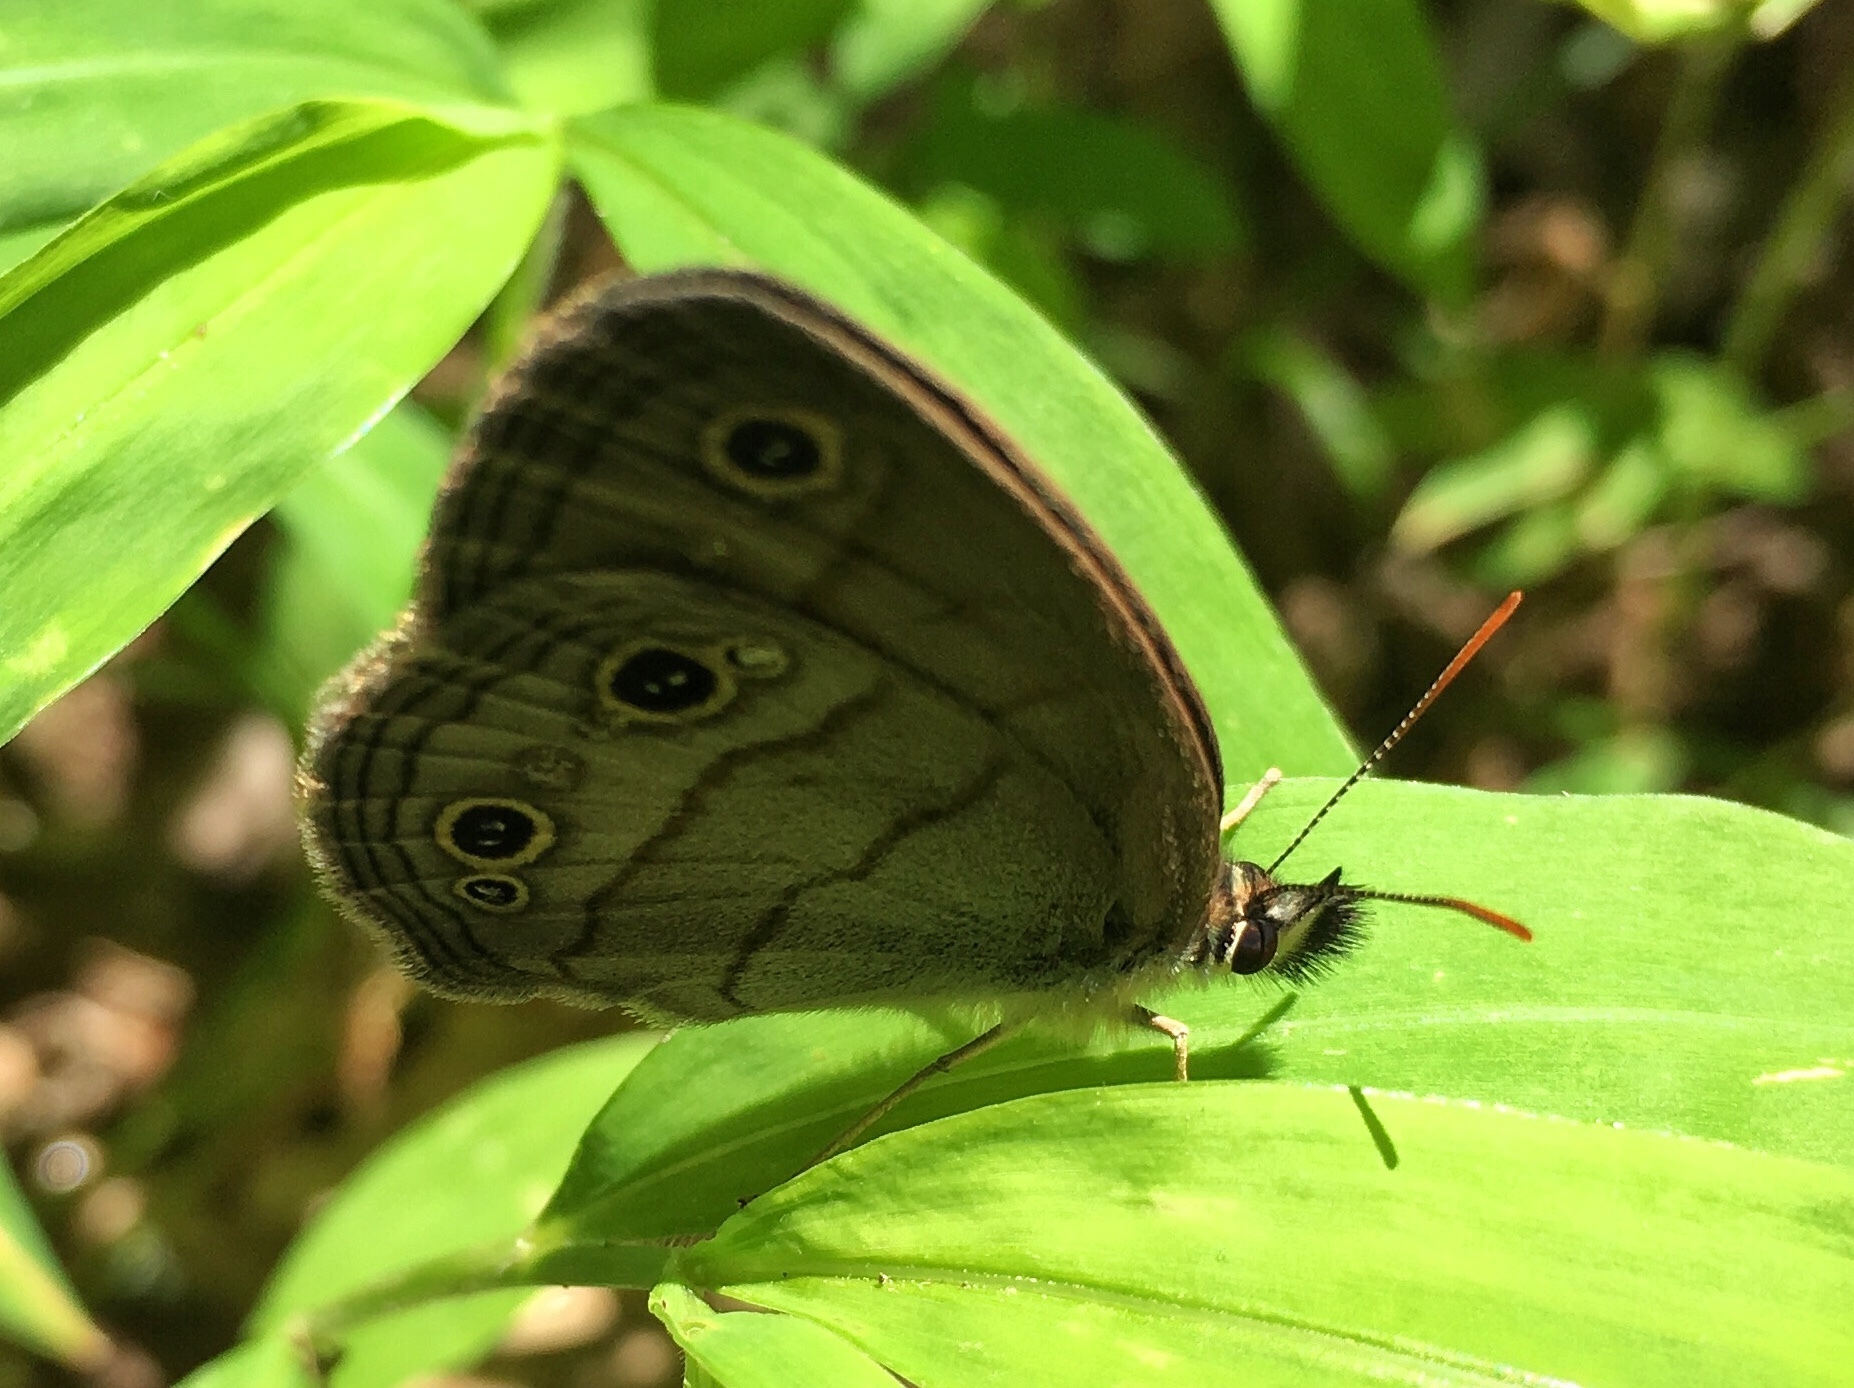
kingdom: Animalia
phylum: Arthropoda
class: Insecta
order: Lepidoptera
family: Nymphalidae
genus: Euptychia
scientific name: Euptychia cymela
